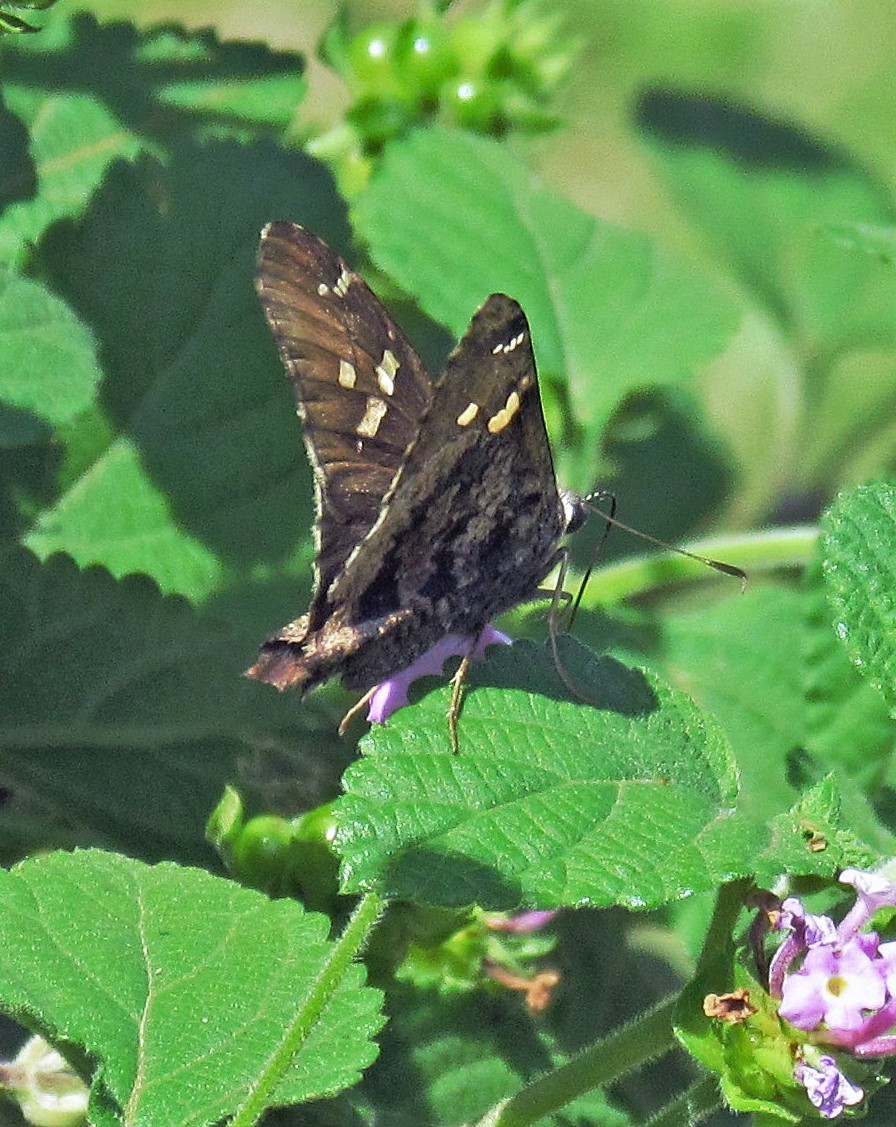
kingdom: Animalia
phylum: Arthropoda
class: Insecta
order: Lepidoptera
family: Hesperiidae
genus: Typhedanus
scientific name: Typhedanus undulatus
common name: Mottled longtail
